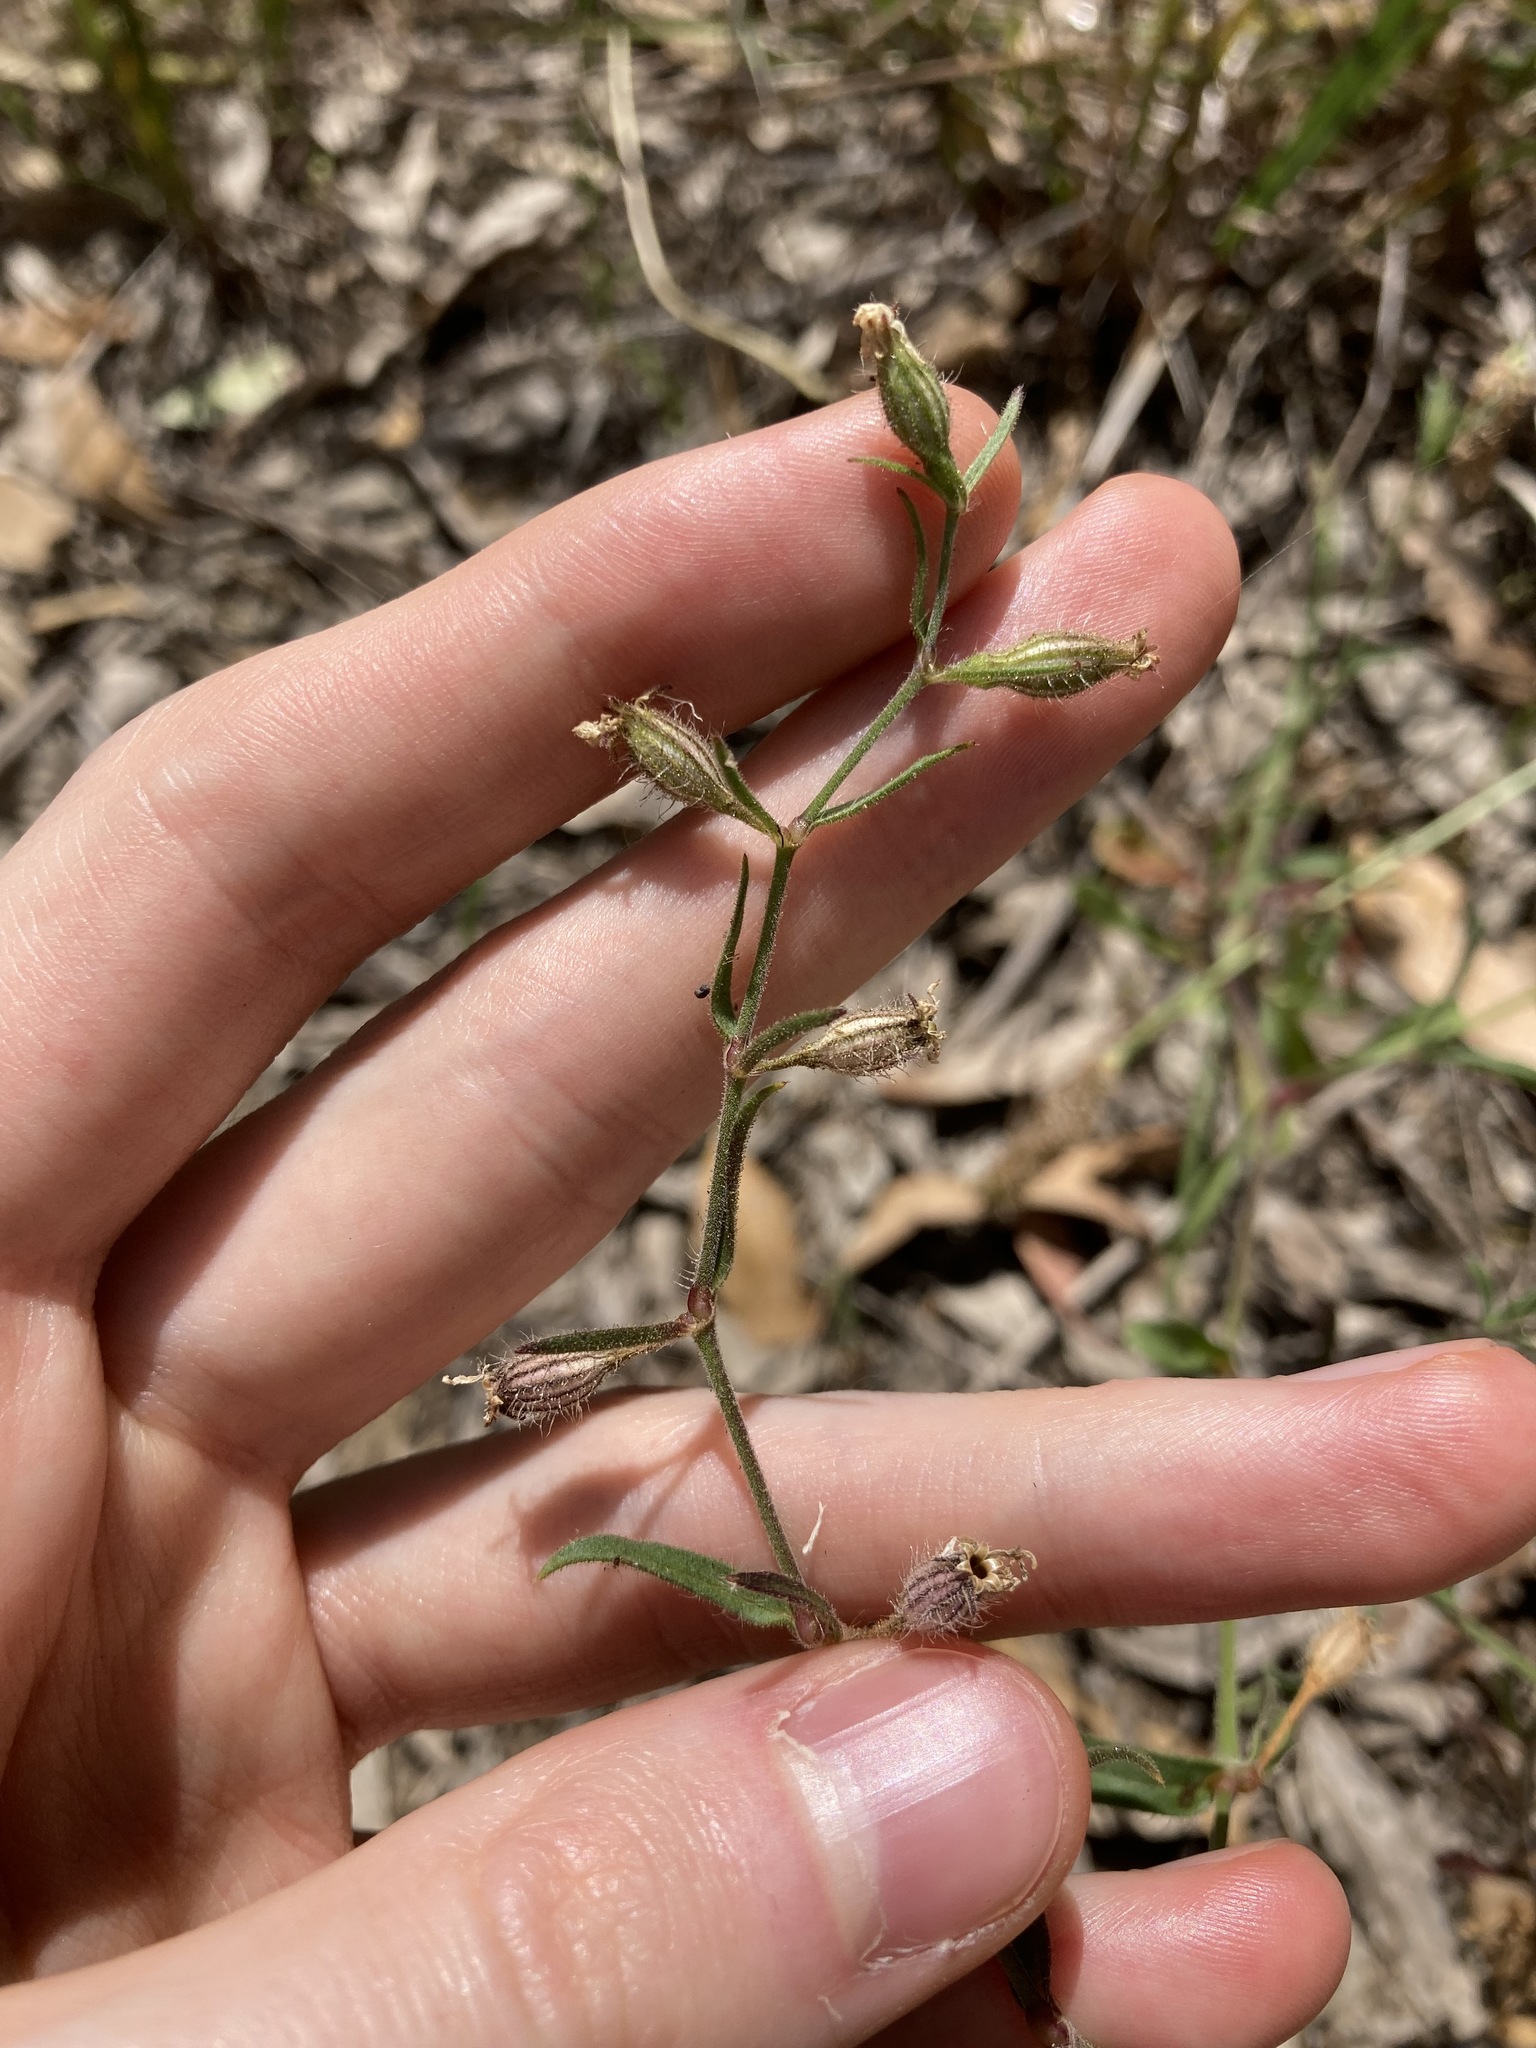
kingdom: Plantae
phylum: Tracheophyta
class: Magnoliopsida
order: Caryophyllales
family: Caryophyllaceae
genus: Silene
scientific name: Silene gallica
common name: Small-flowered catchfly
